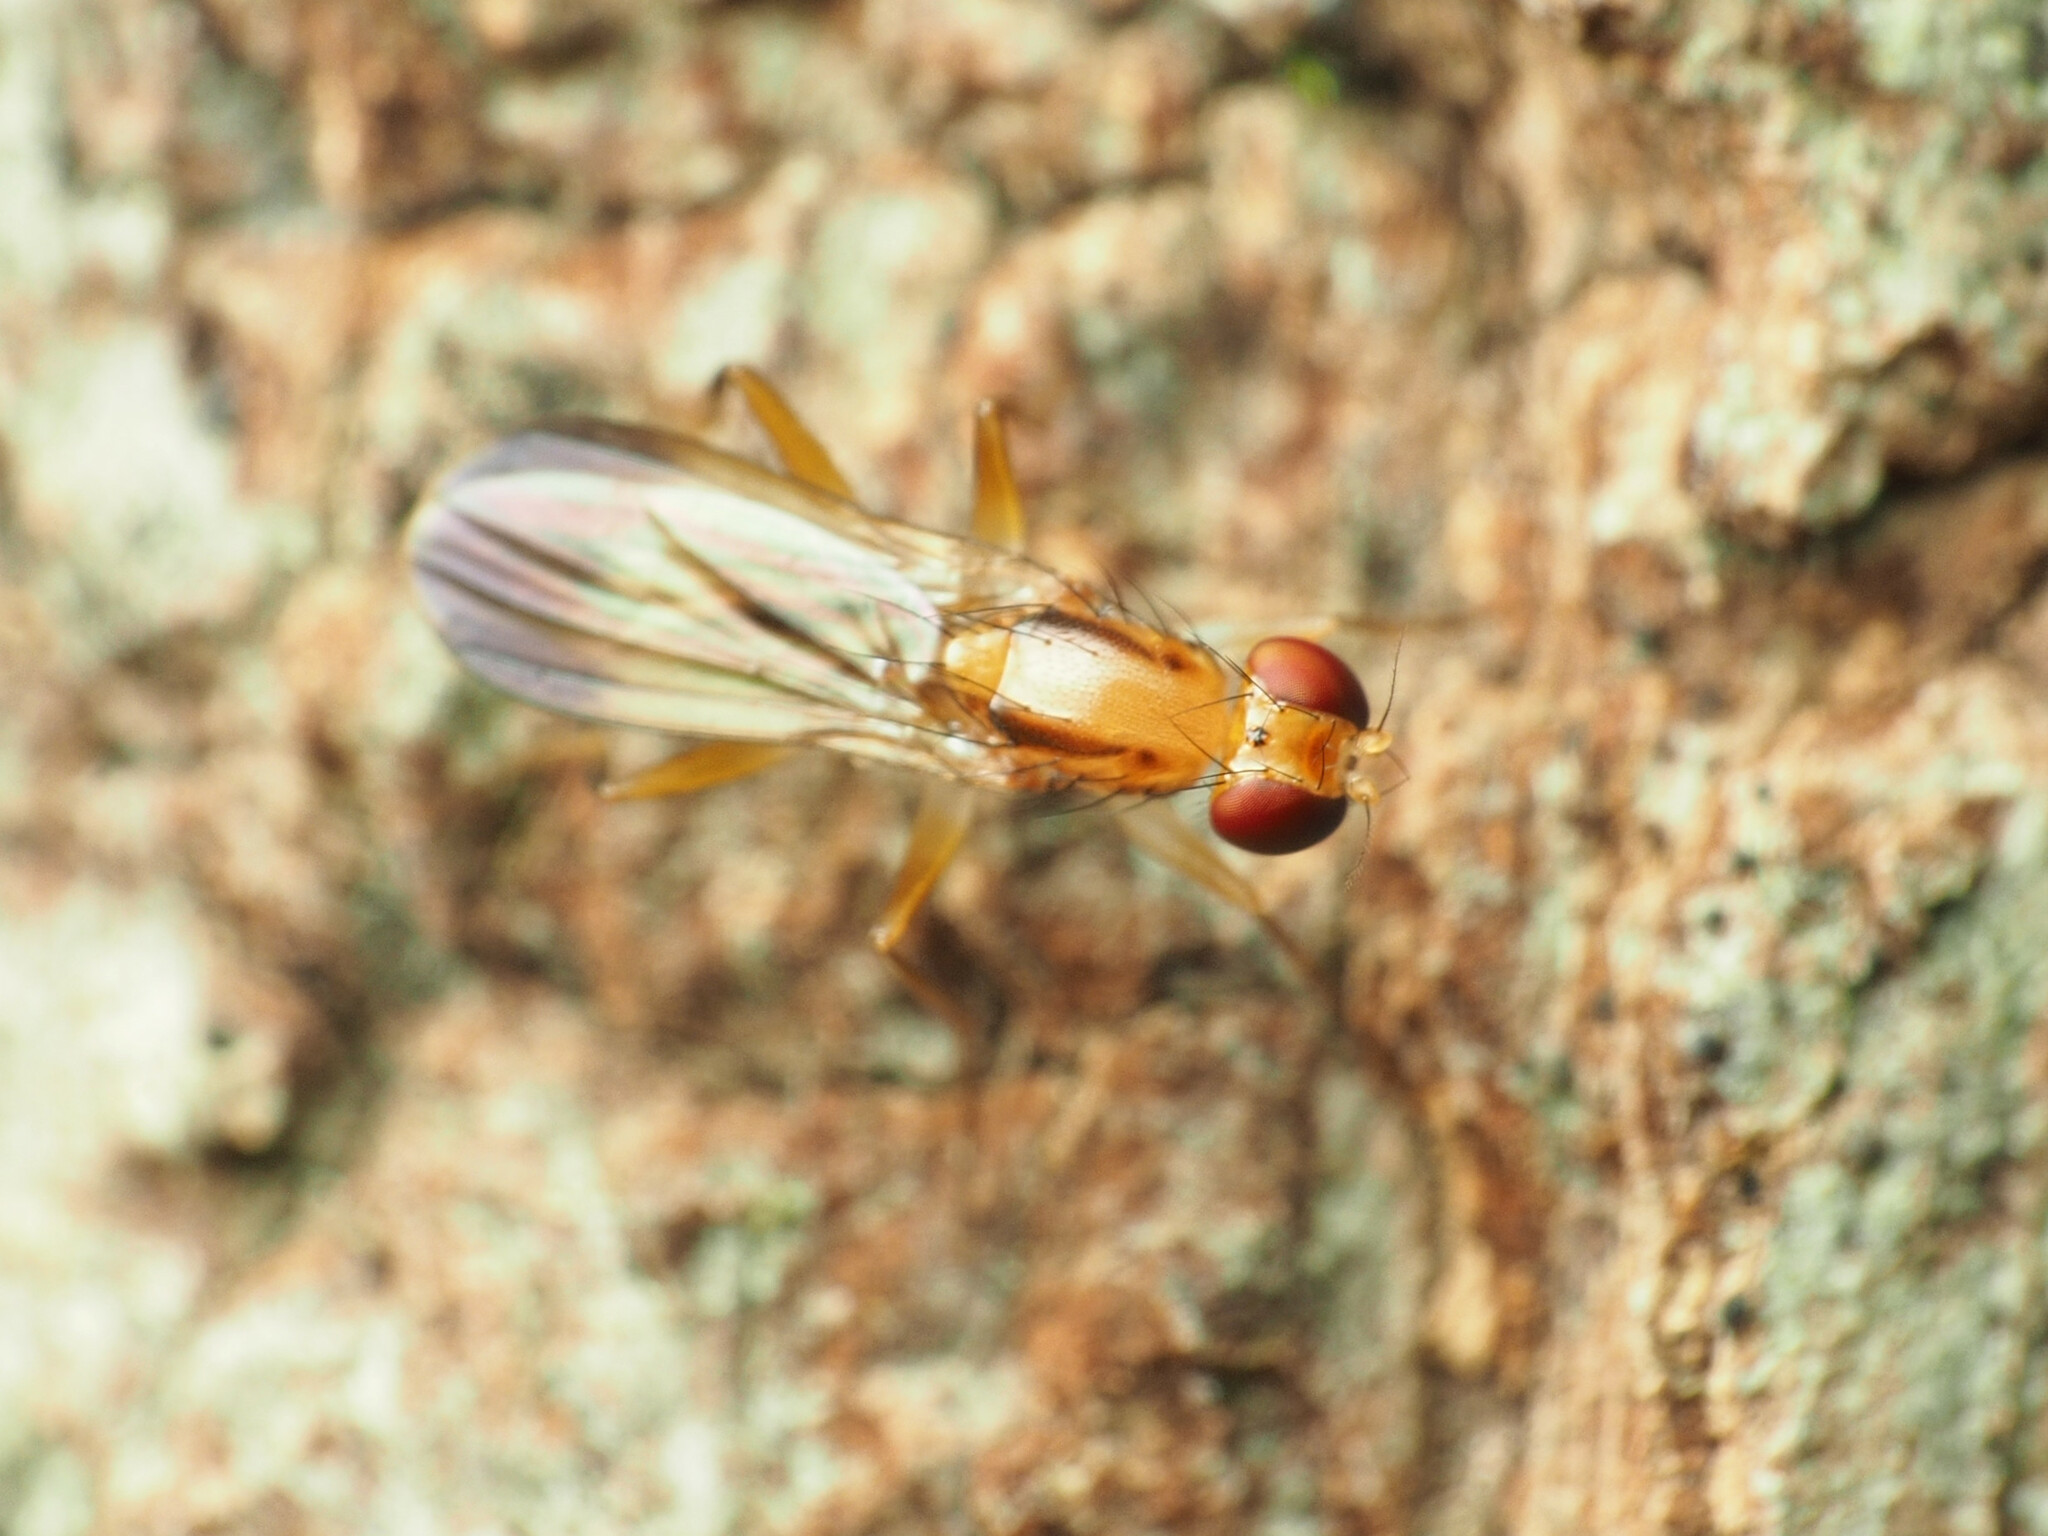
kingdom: Animalia
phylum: Arthropoda
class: Insecta
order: Diptera
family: Clusiidae
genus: Clusia
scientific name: Clusia lateralis
